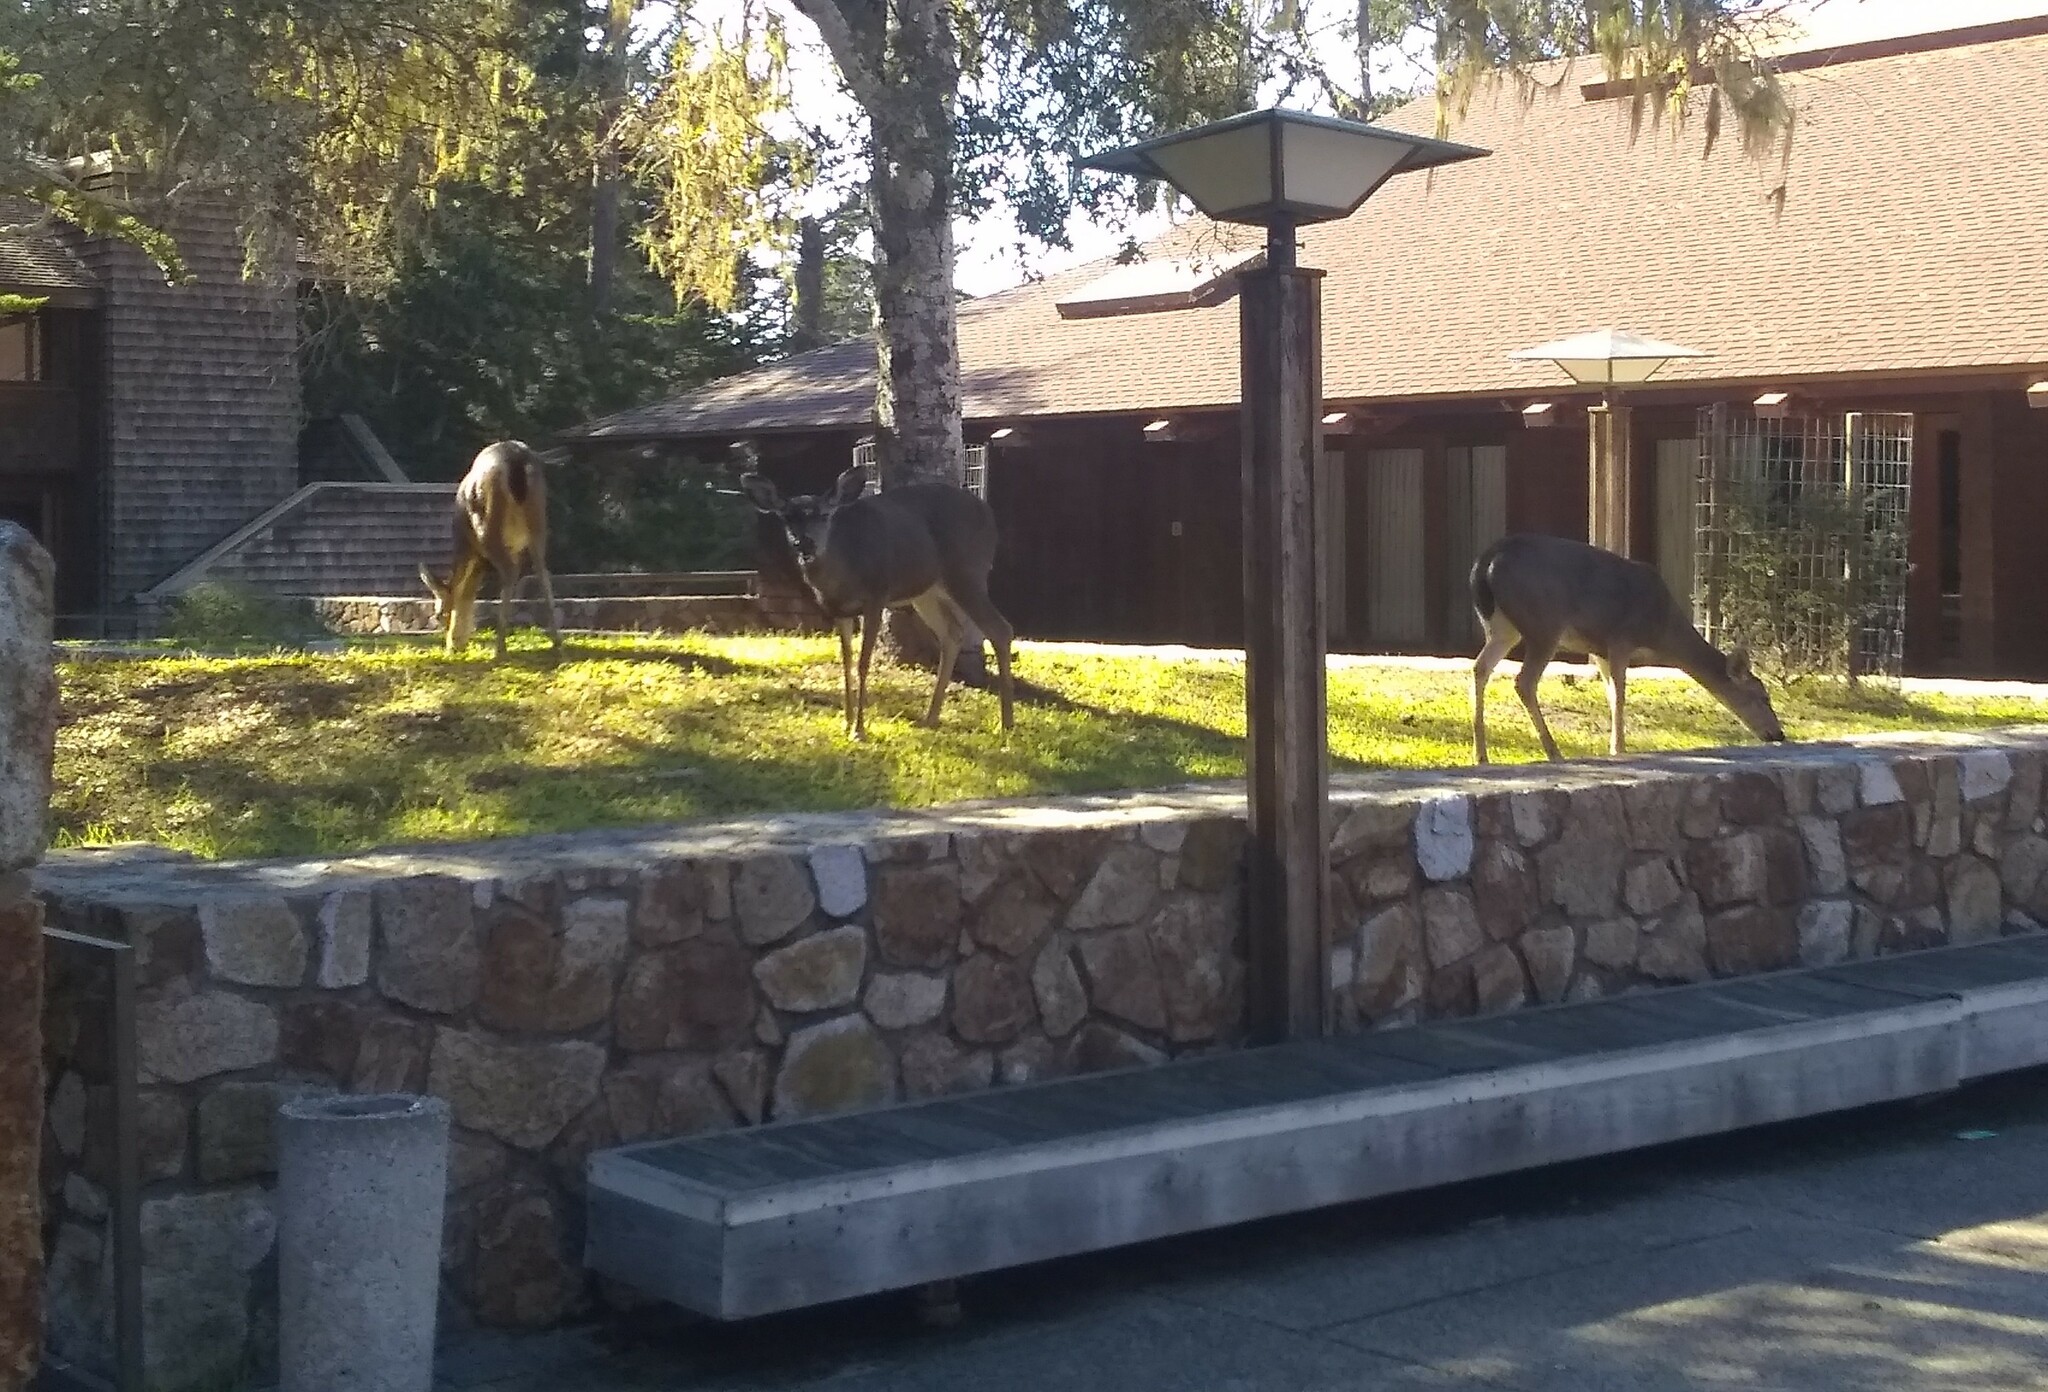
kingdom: Animalia
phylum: Chordata
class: Mammalia
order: Artiodactyla
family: Cervidae
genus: Odocoileus
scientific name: Odocoileus hemionus
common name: Mule deer
